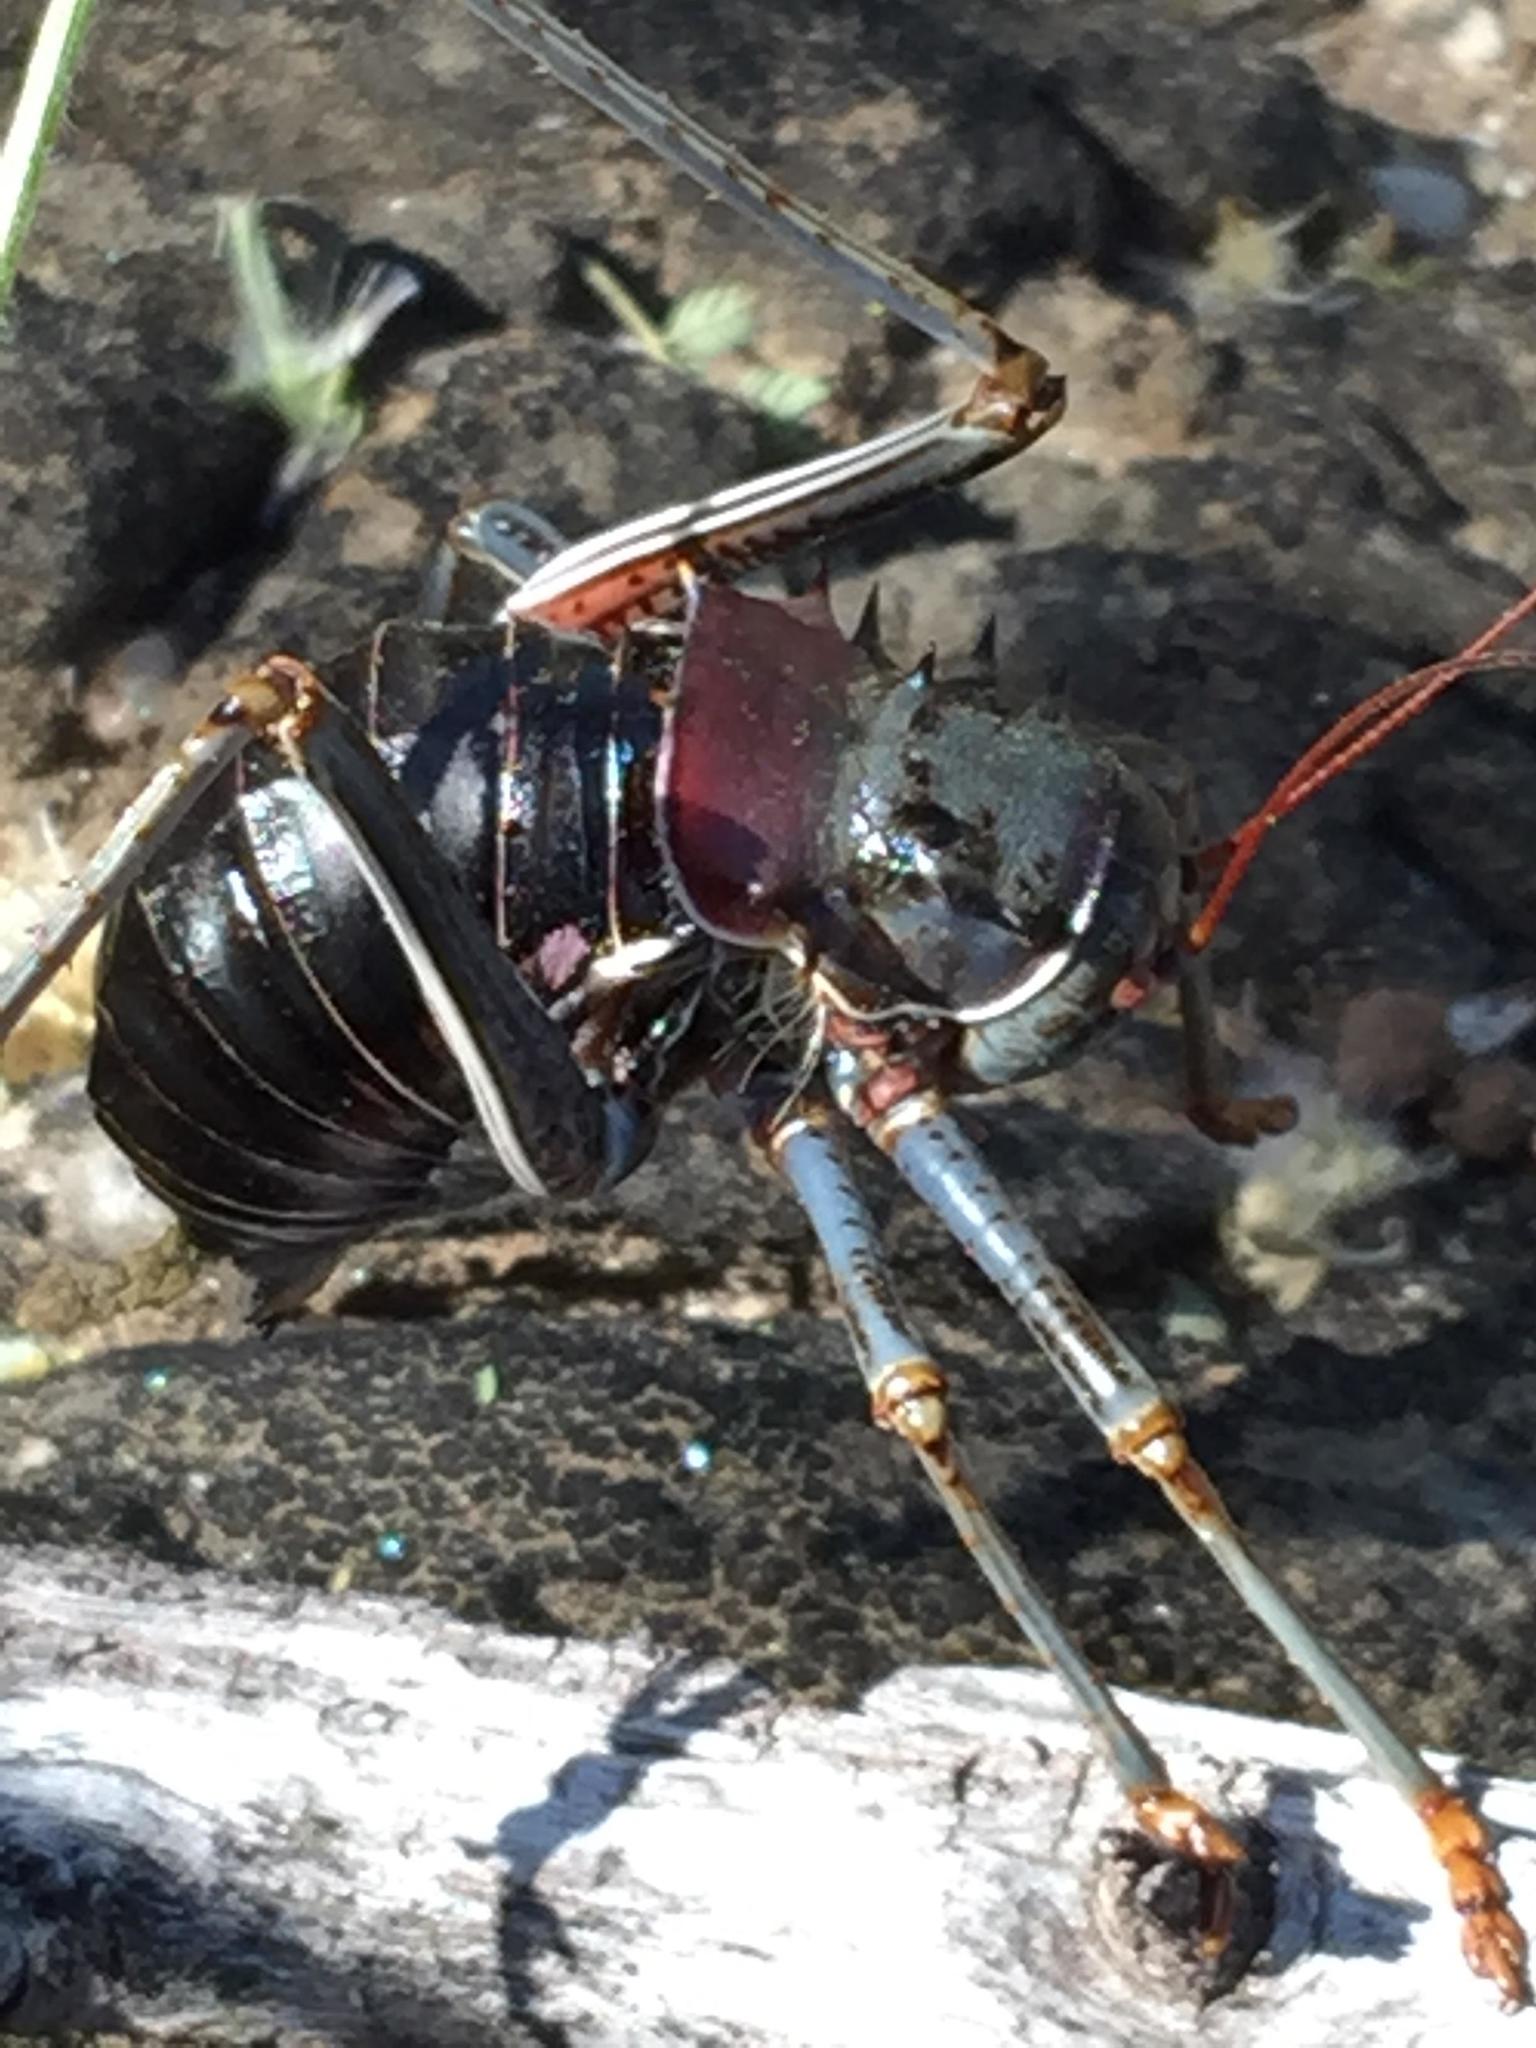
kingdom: Animalia
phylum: Arthropoda
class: Insecta
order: Orthoptera
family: Tettigoniidae
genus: Acanthoplus
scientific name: Acanthoplus discoidalis
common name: Armoured katydid
